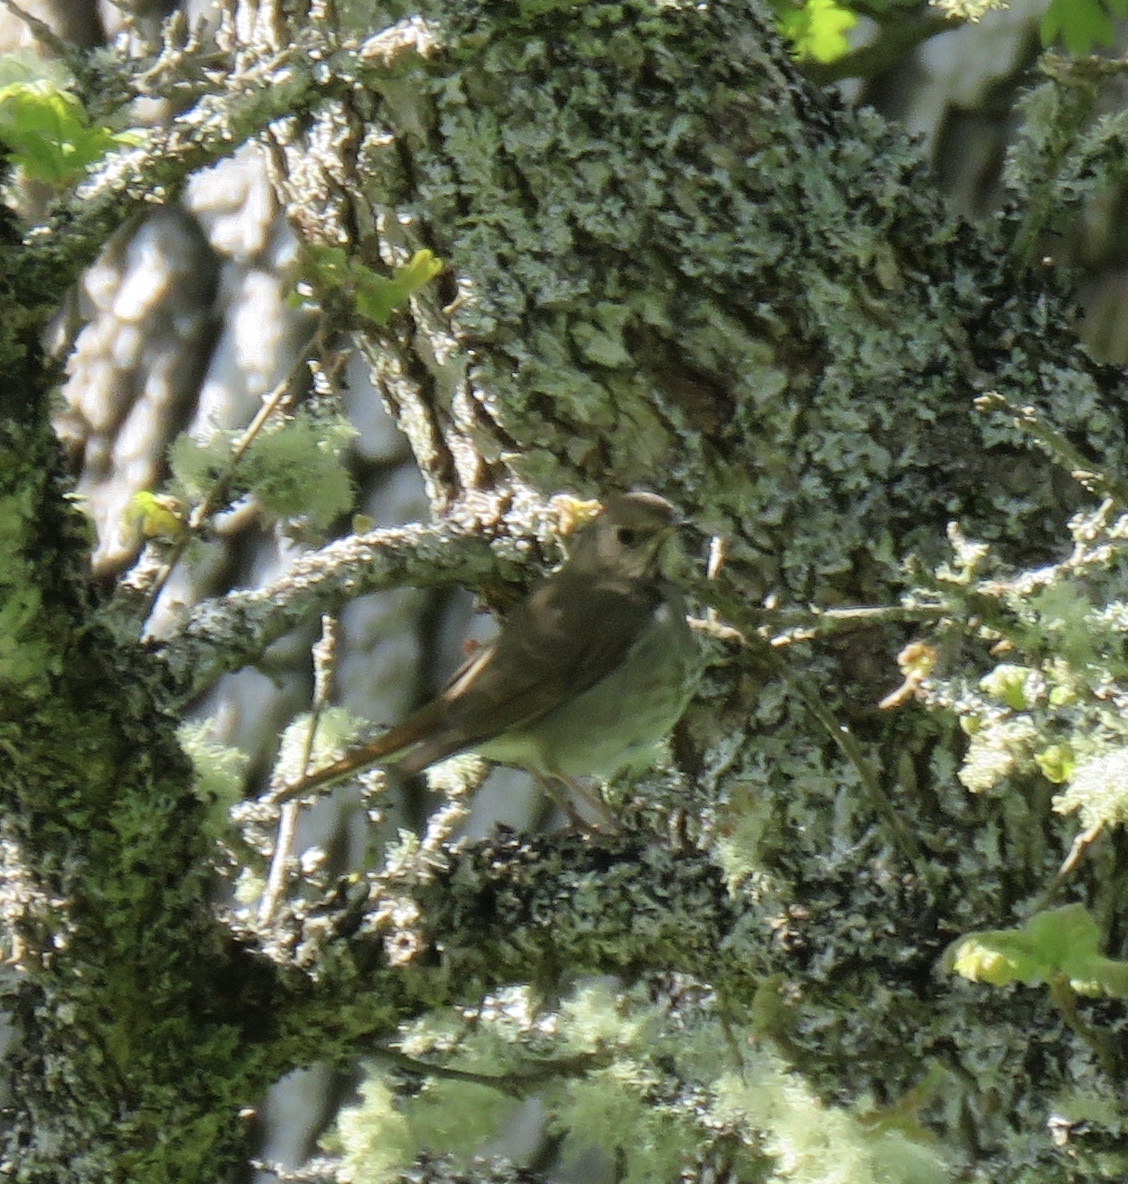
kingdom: Animalia
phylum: Chordata
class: Aves
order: Passeriformes
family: Turdidae
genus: Catharus
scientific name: Catharus guttatus
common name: Hermit thrush
